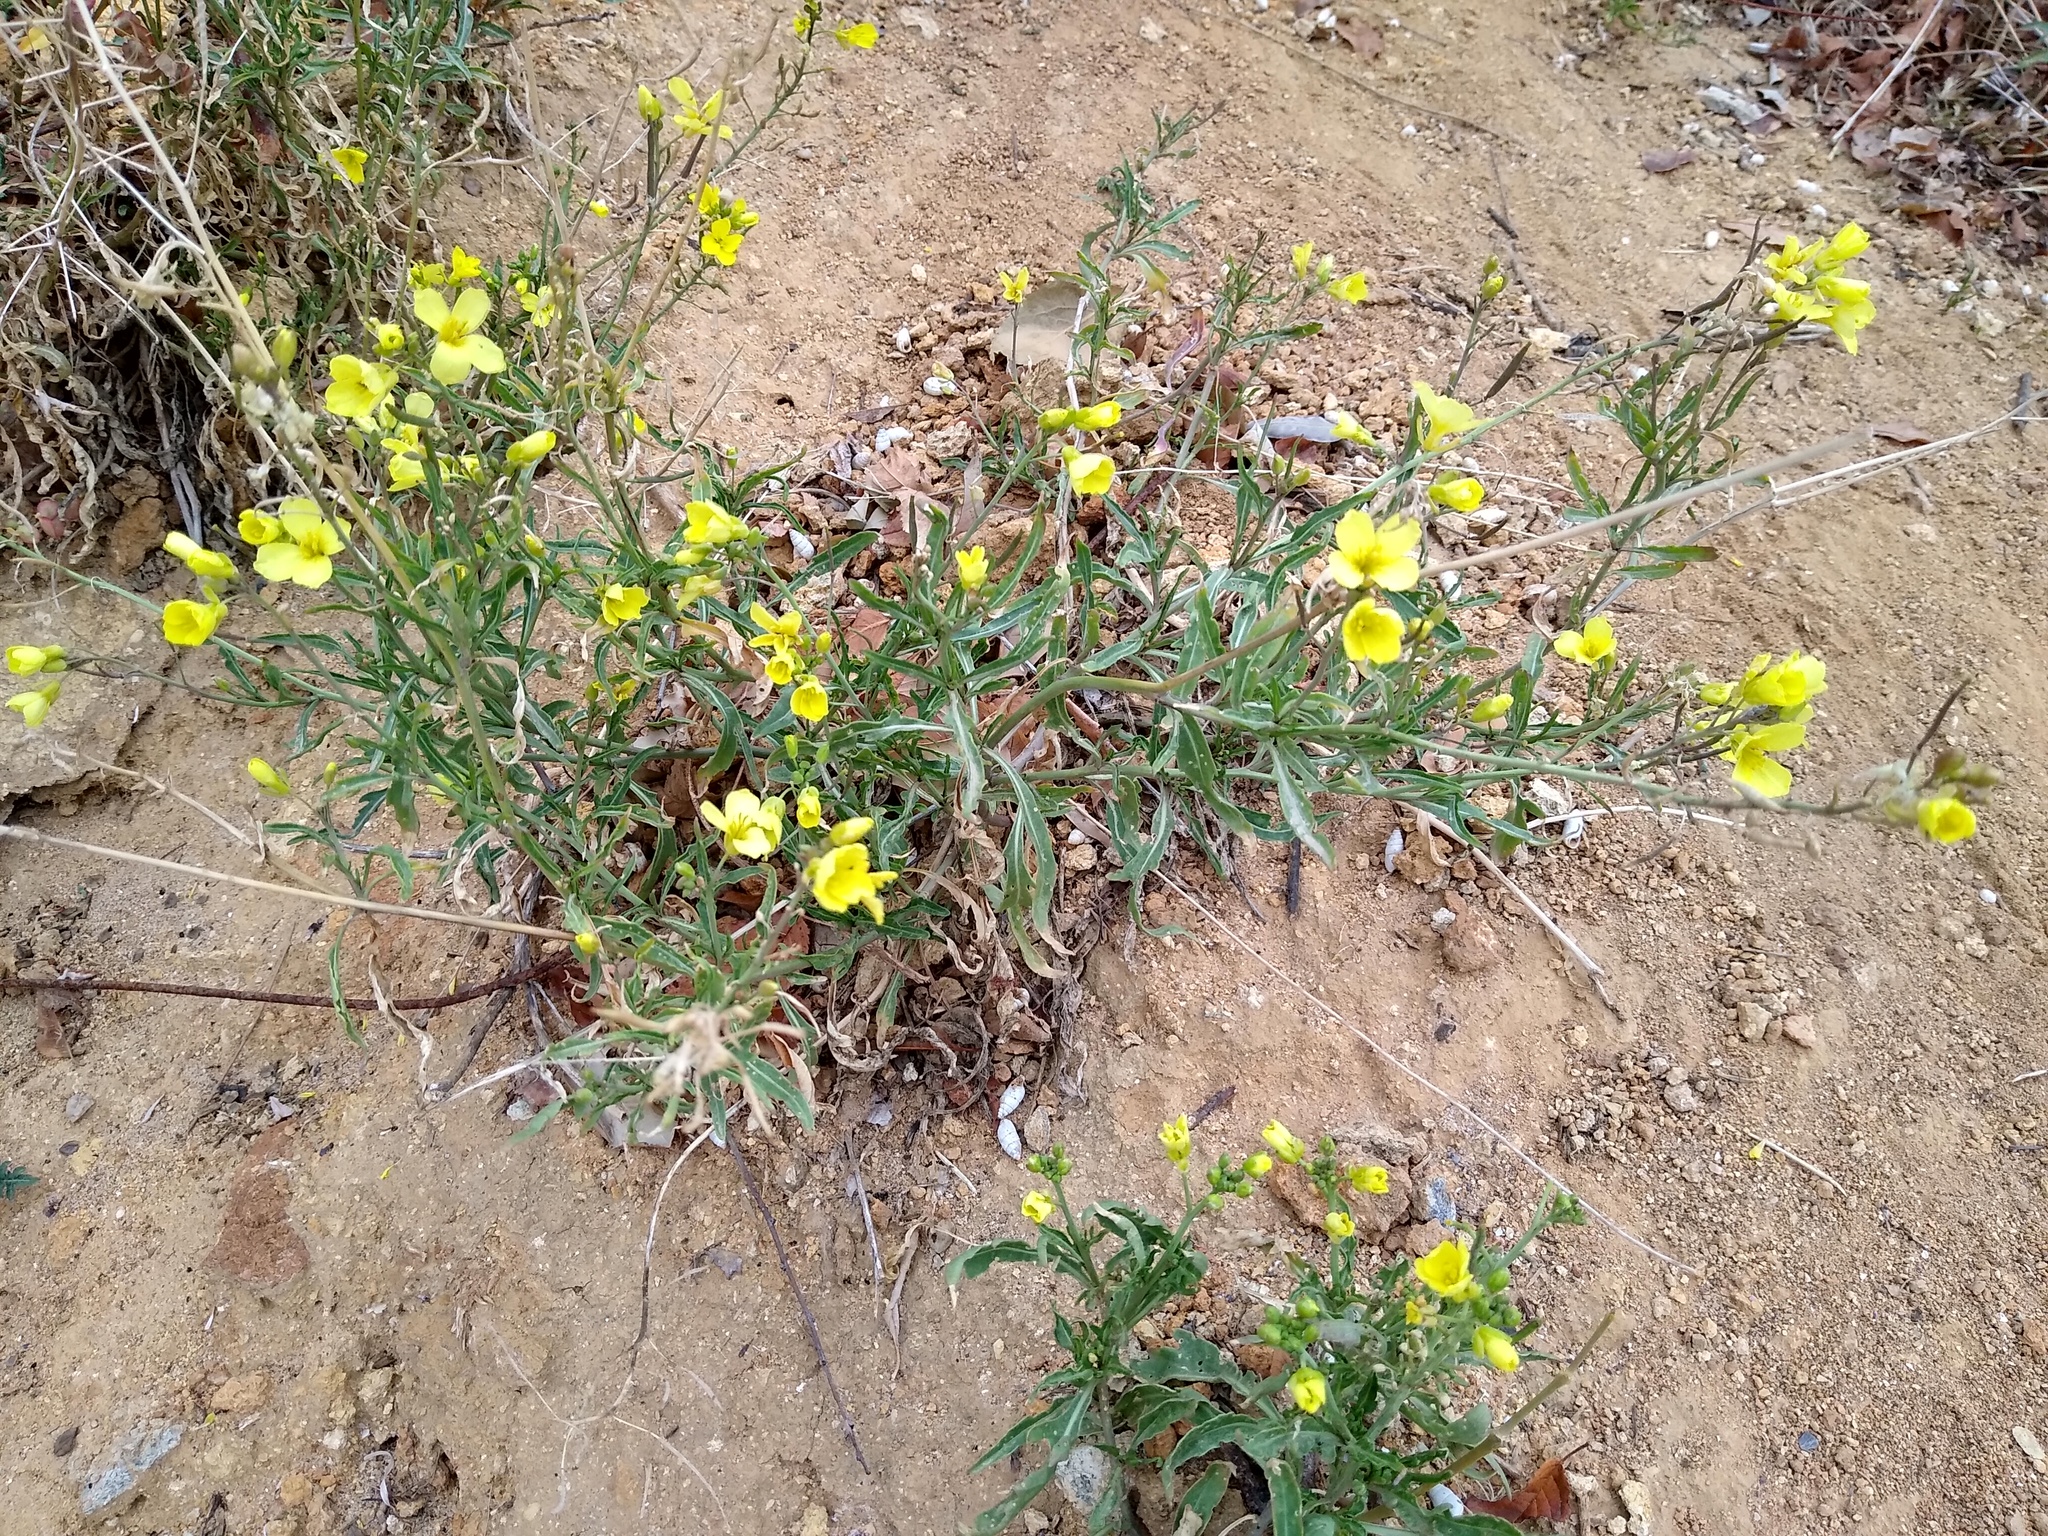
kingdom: Plantae
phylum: Tracheophyta
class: Magnoliopsida
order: Brassicales
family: Brassicaceae
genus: Diplotaxis
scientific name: Diplotaxis tenuifolia
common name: Perennial wall-rocket
